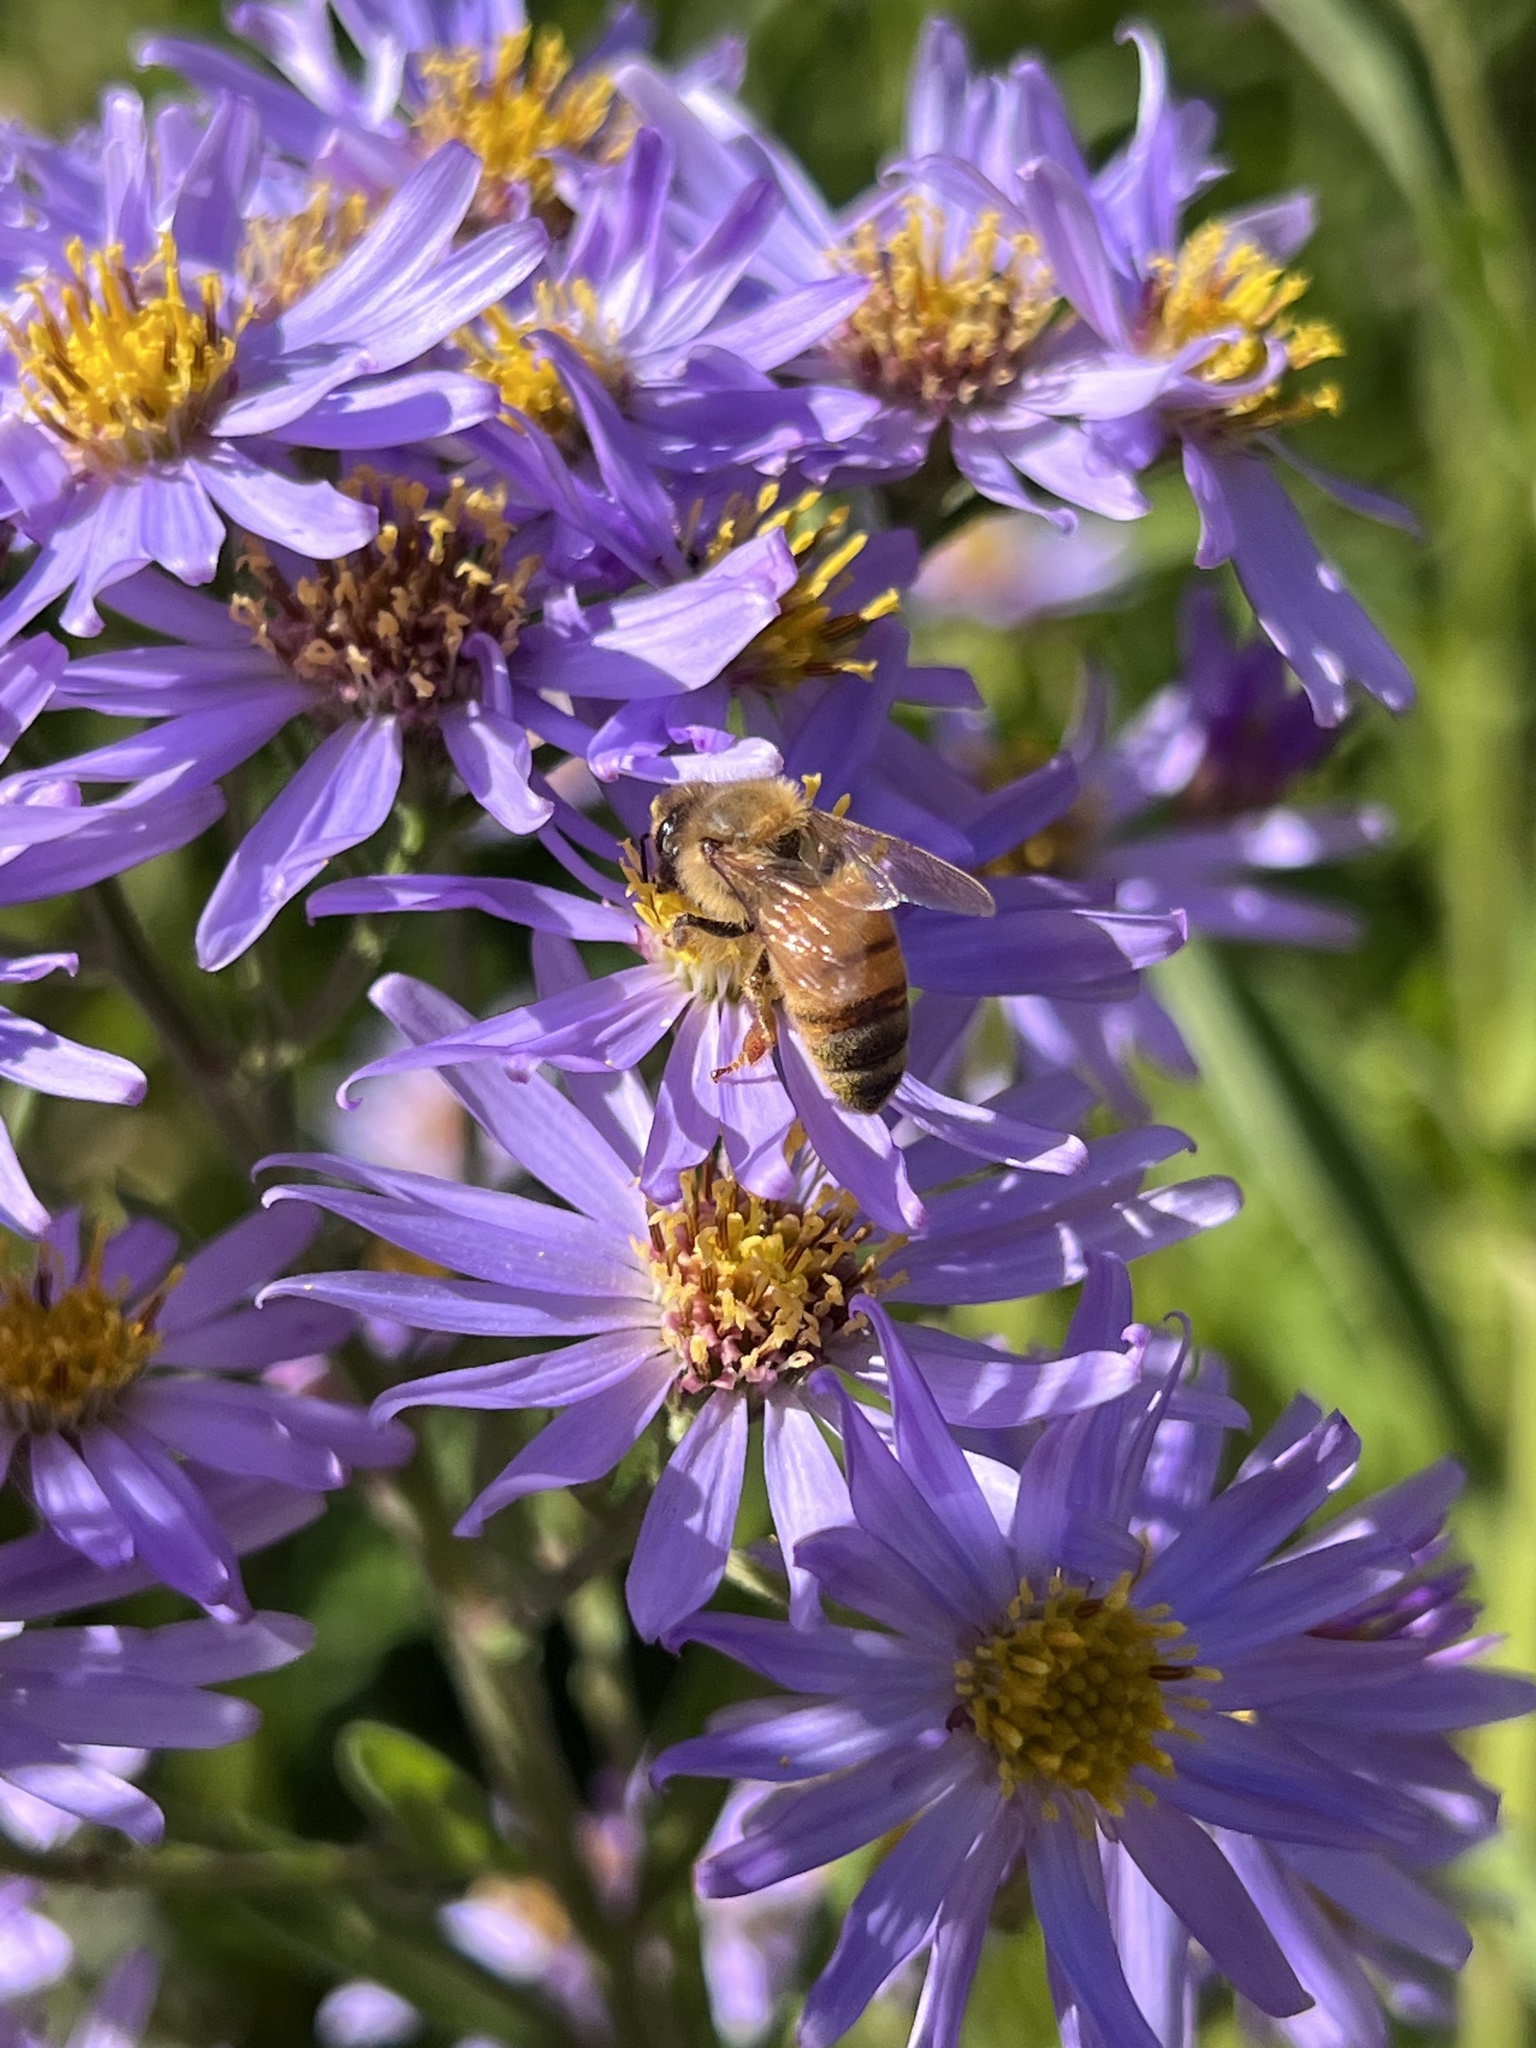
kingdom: Animalia
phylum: Arthropoda
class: Insecta
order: Hymenoptera
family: Apidae
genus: Apis
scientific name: Apis mellifera
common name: Honey bee
